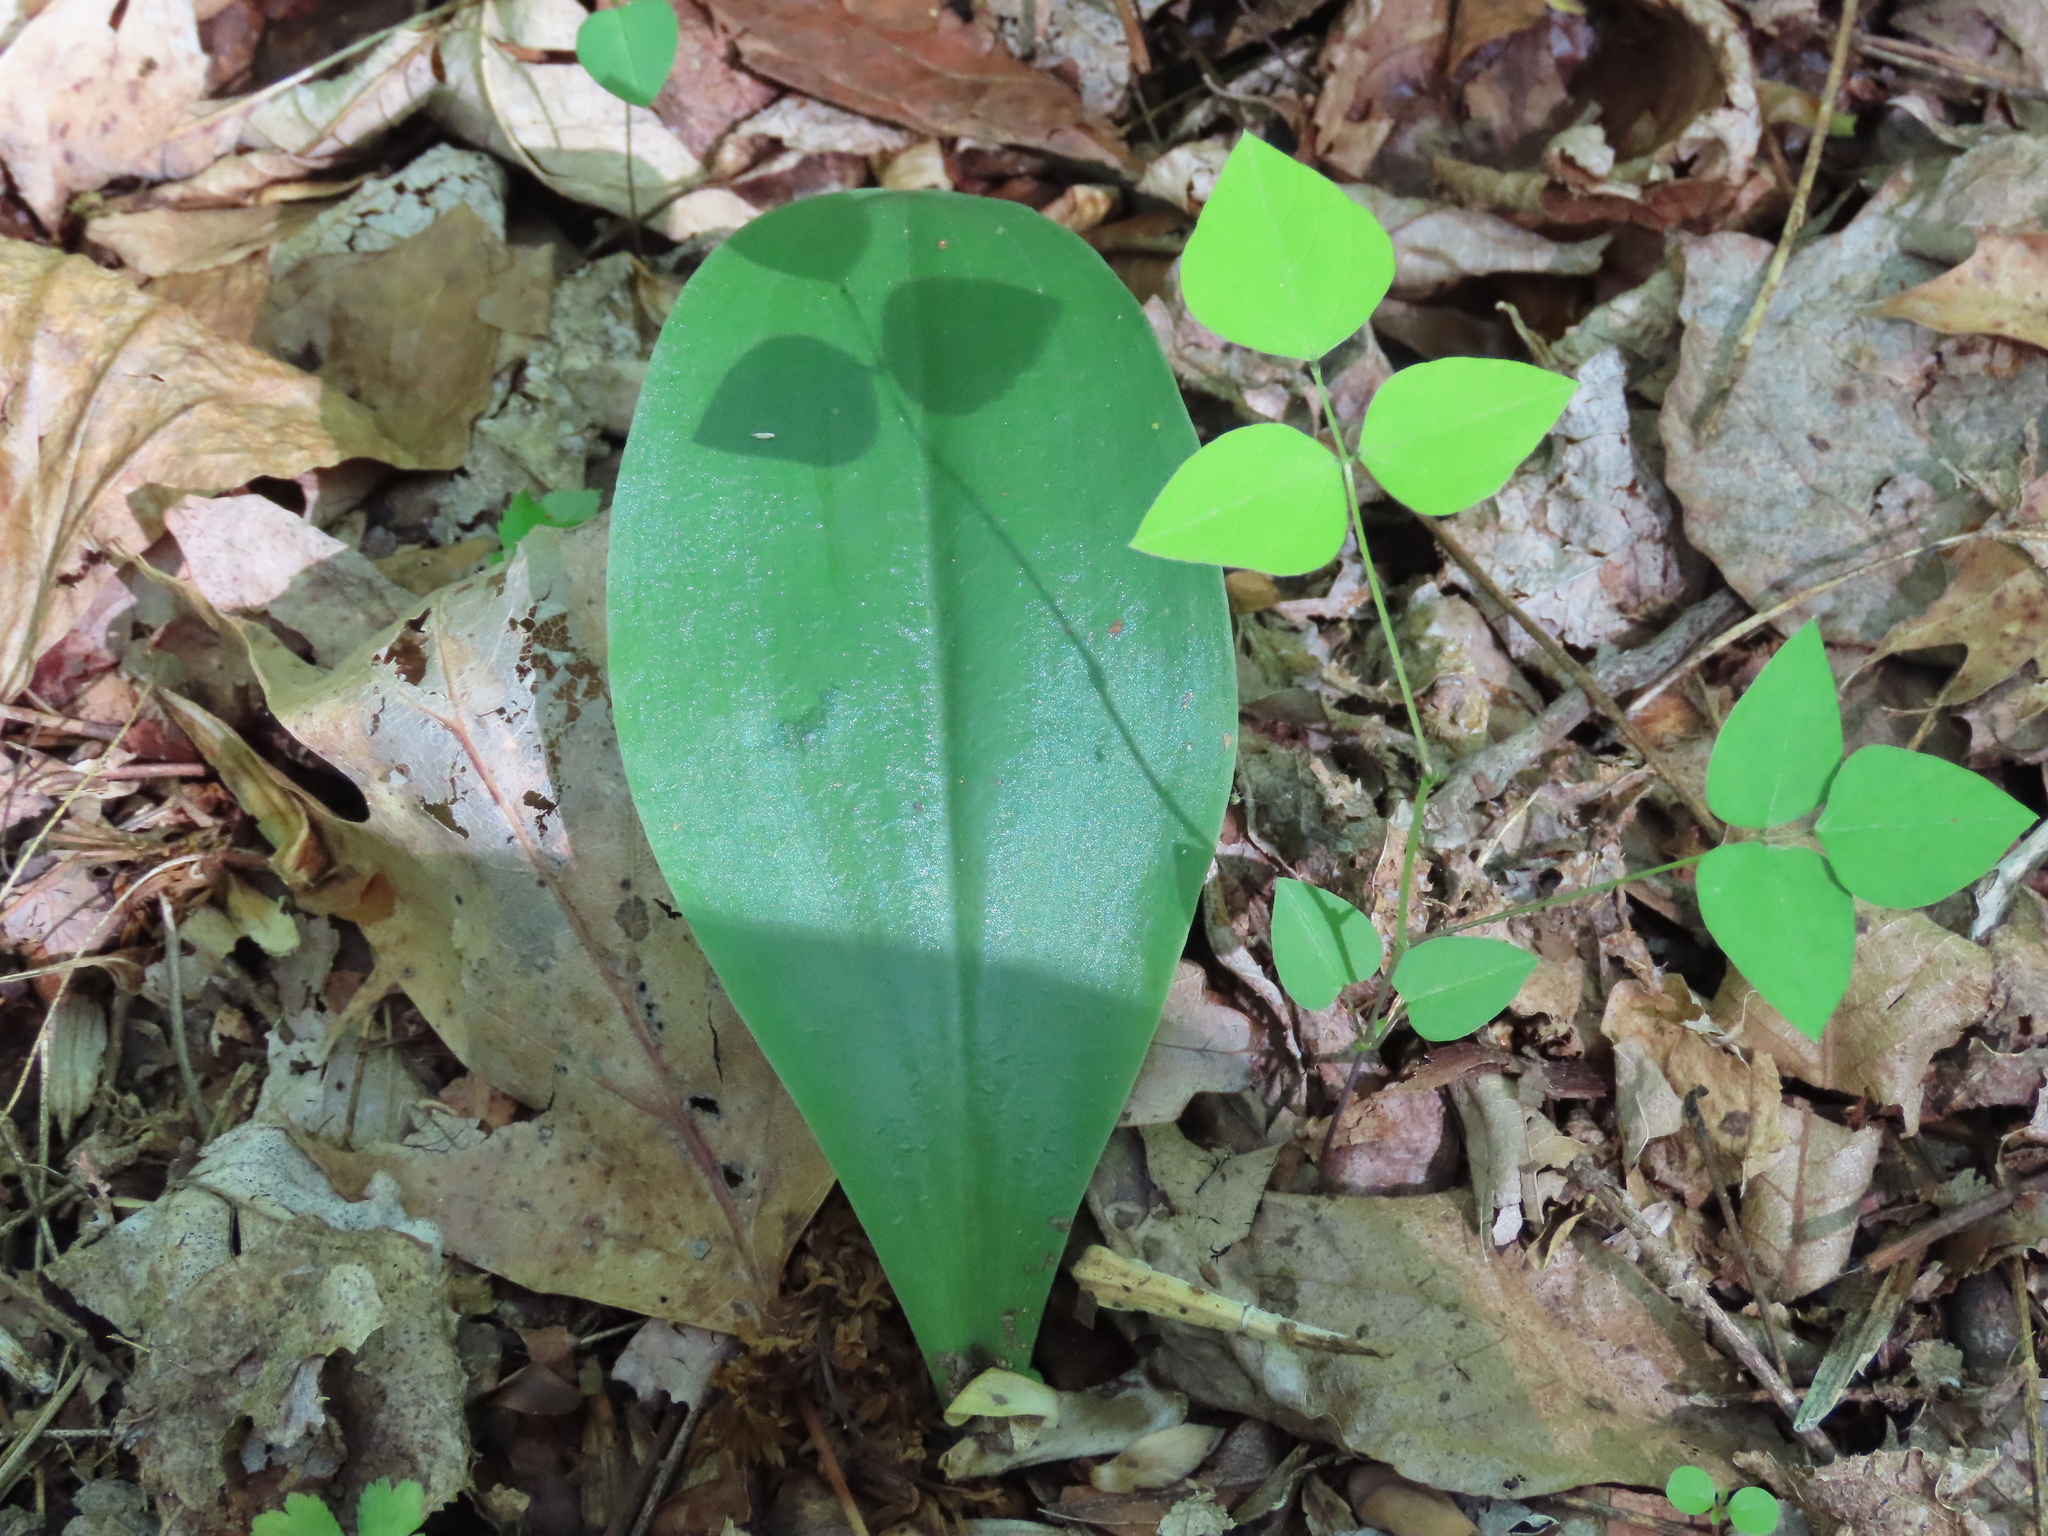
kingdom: Plantae
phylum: Tracheophyta
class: Liliopsida
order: Asparagales
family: Orchidaceae
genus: Galearis
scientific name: Galearis spectabilis
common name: Purple-hooded orchis
